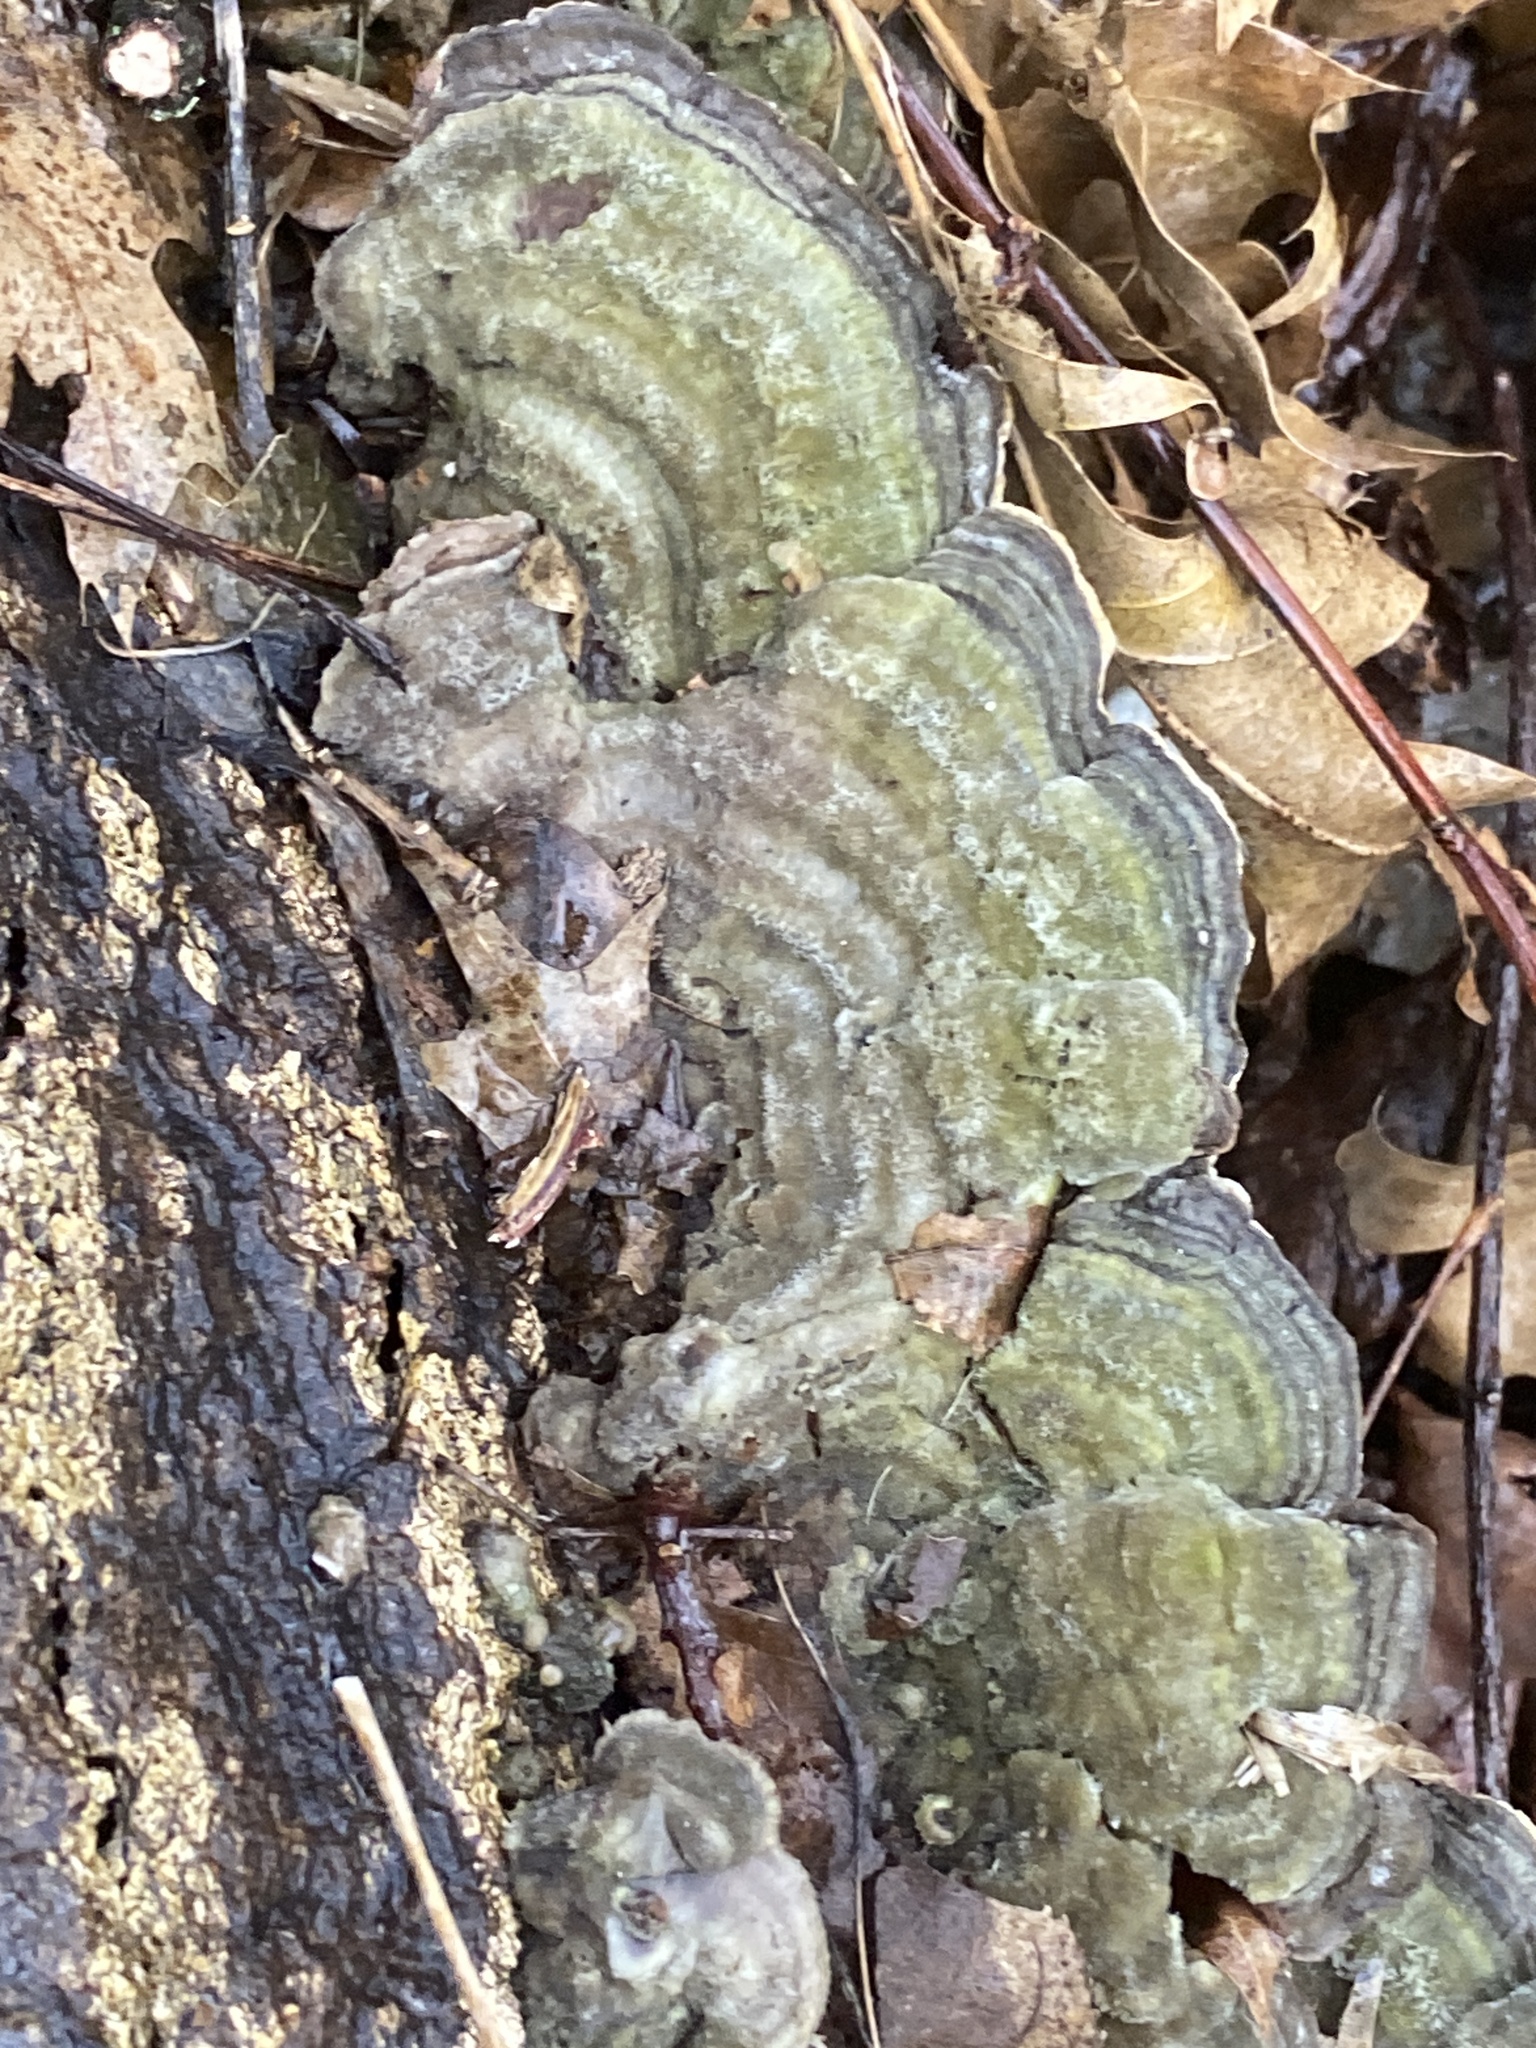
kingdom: Fungi
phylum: Basidiomycota
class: Agaricomycetes
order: Polyporales
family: Cerrenaceae
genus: Cerrena
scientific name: Cerrena unicolor
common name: Mossy maze polypore
